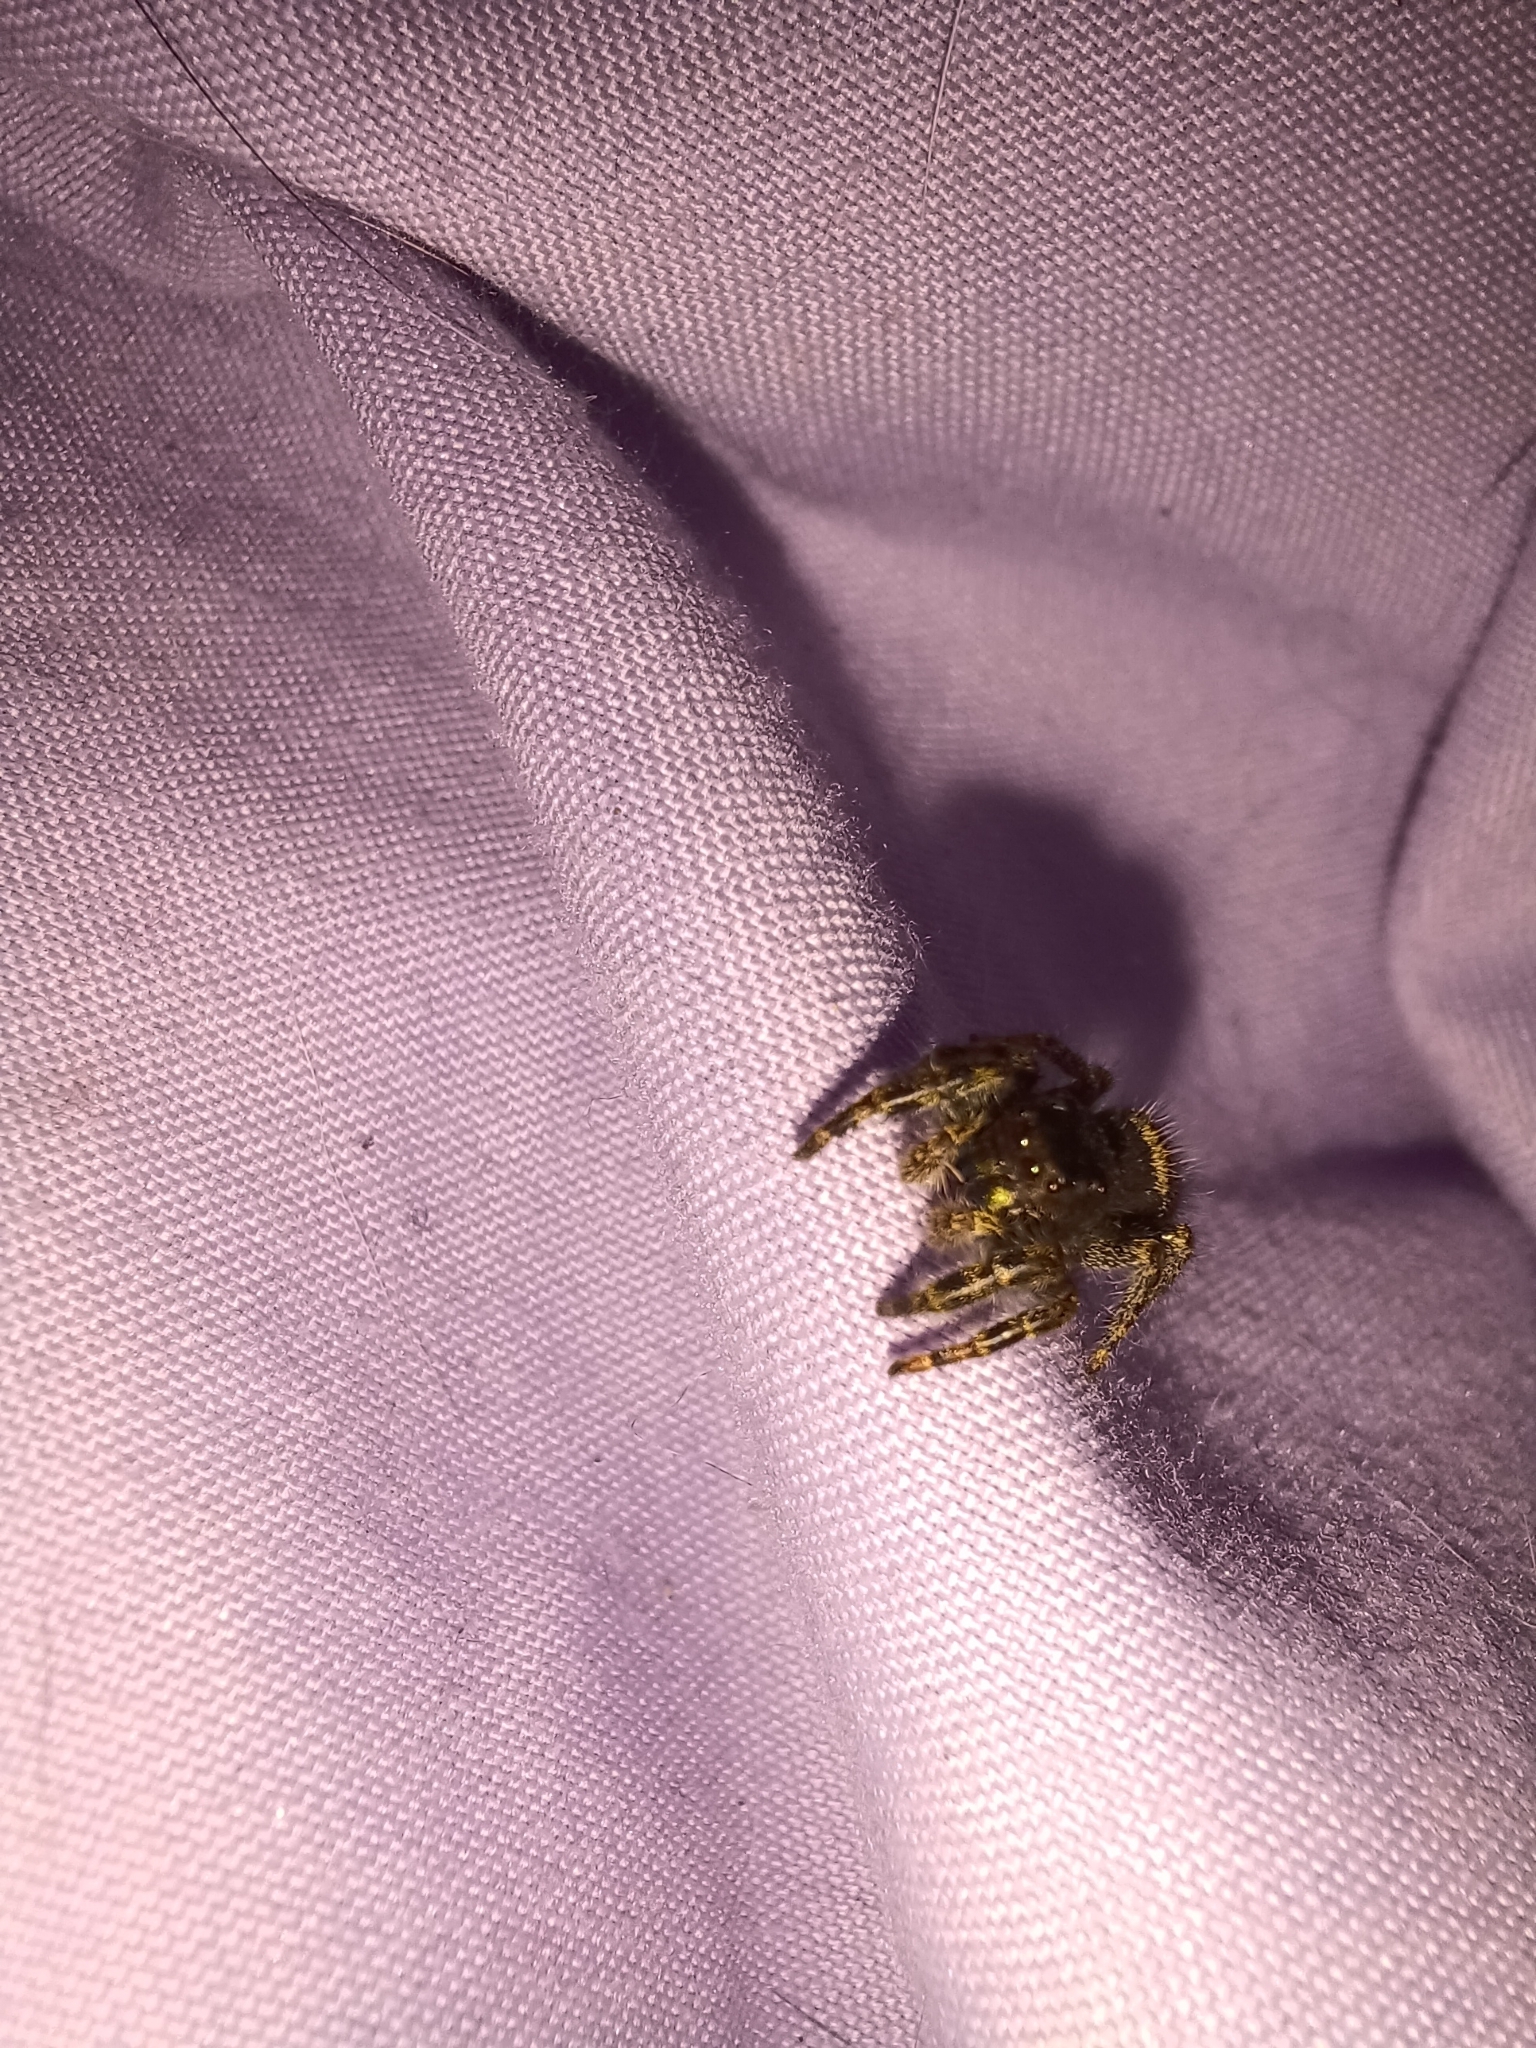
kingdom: Animalia
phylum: Arthropoda
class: Arachnida
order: Araneae
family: Salticidae
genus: Phidippus
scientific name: Phidippus audax
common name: Bold jumper
